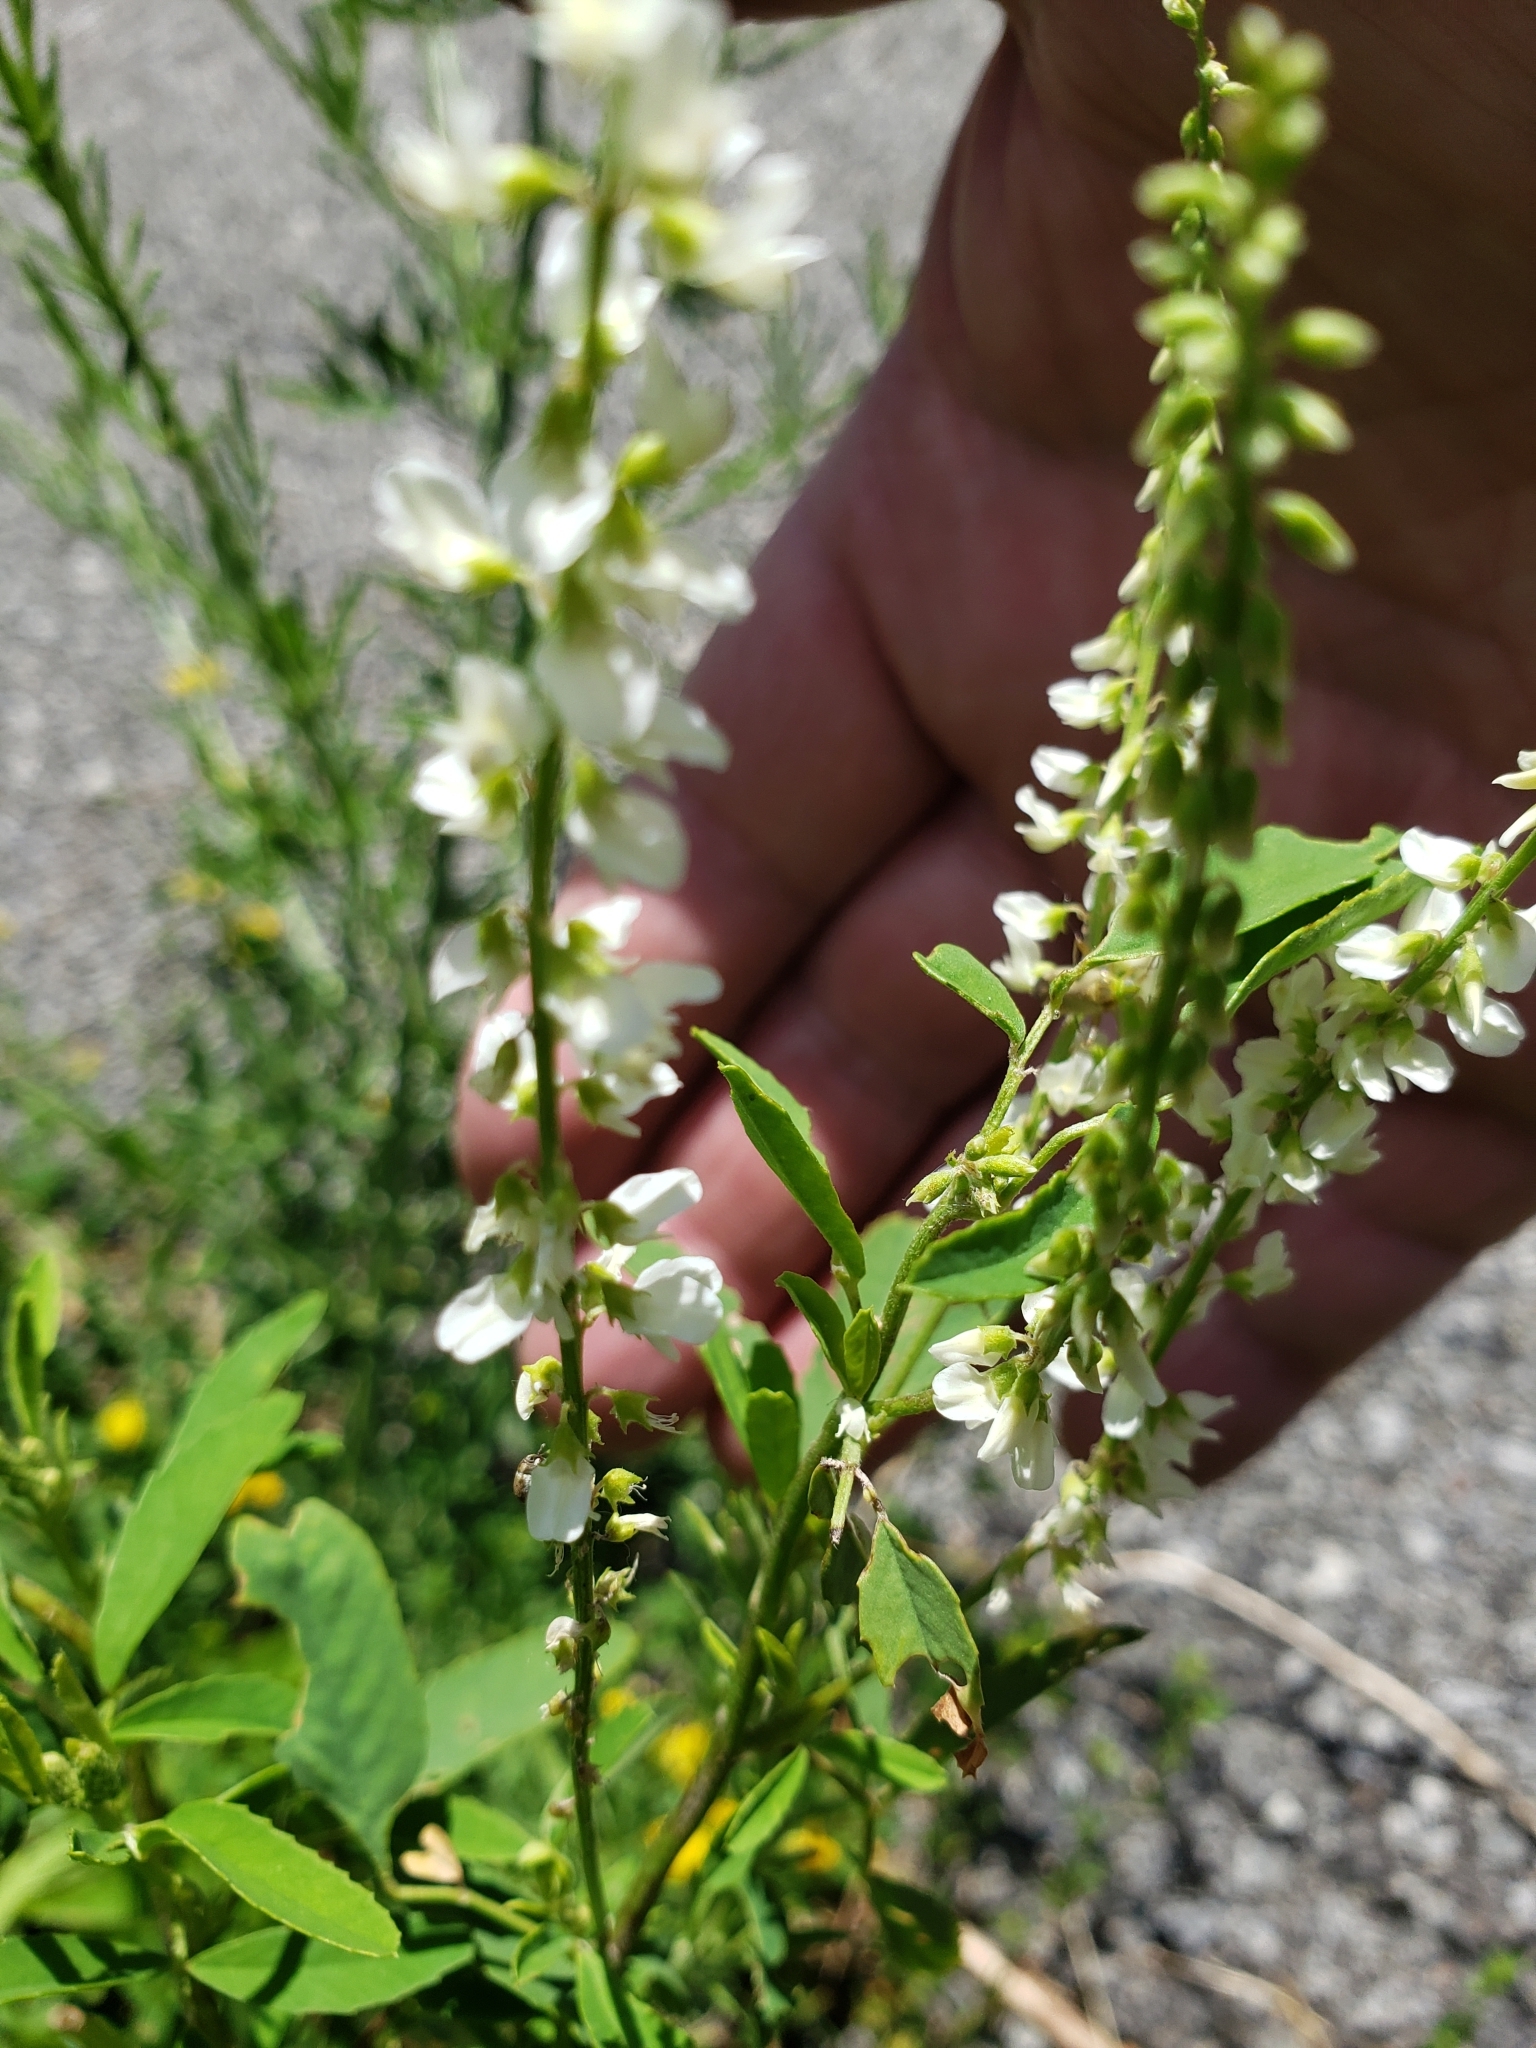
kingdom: Plantae
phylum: Tracheophyta
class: Magnoliopsida
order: Fabales
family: Fabaceae
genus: Melilotus
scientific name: Melilotus albus
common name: White melilot
